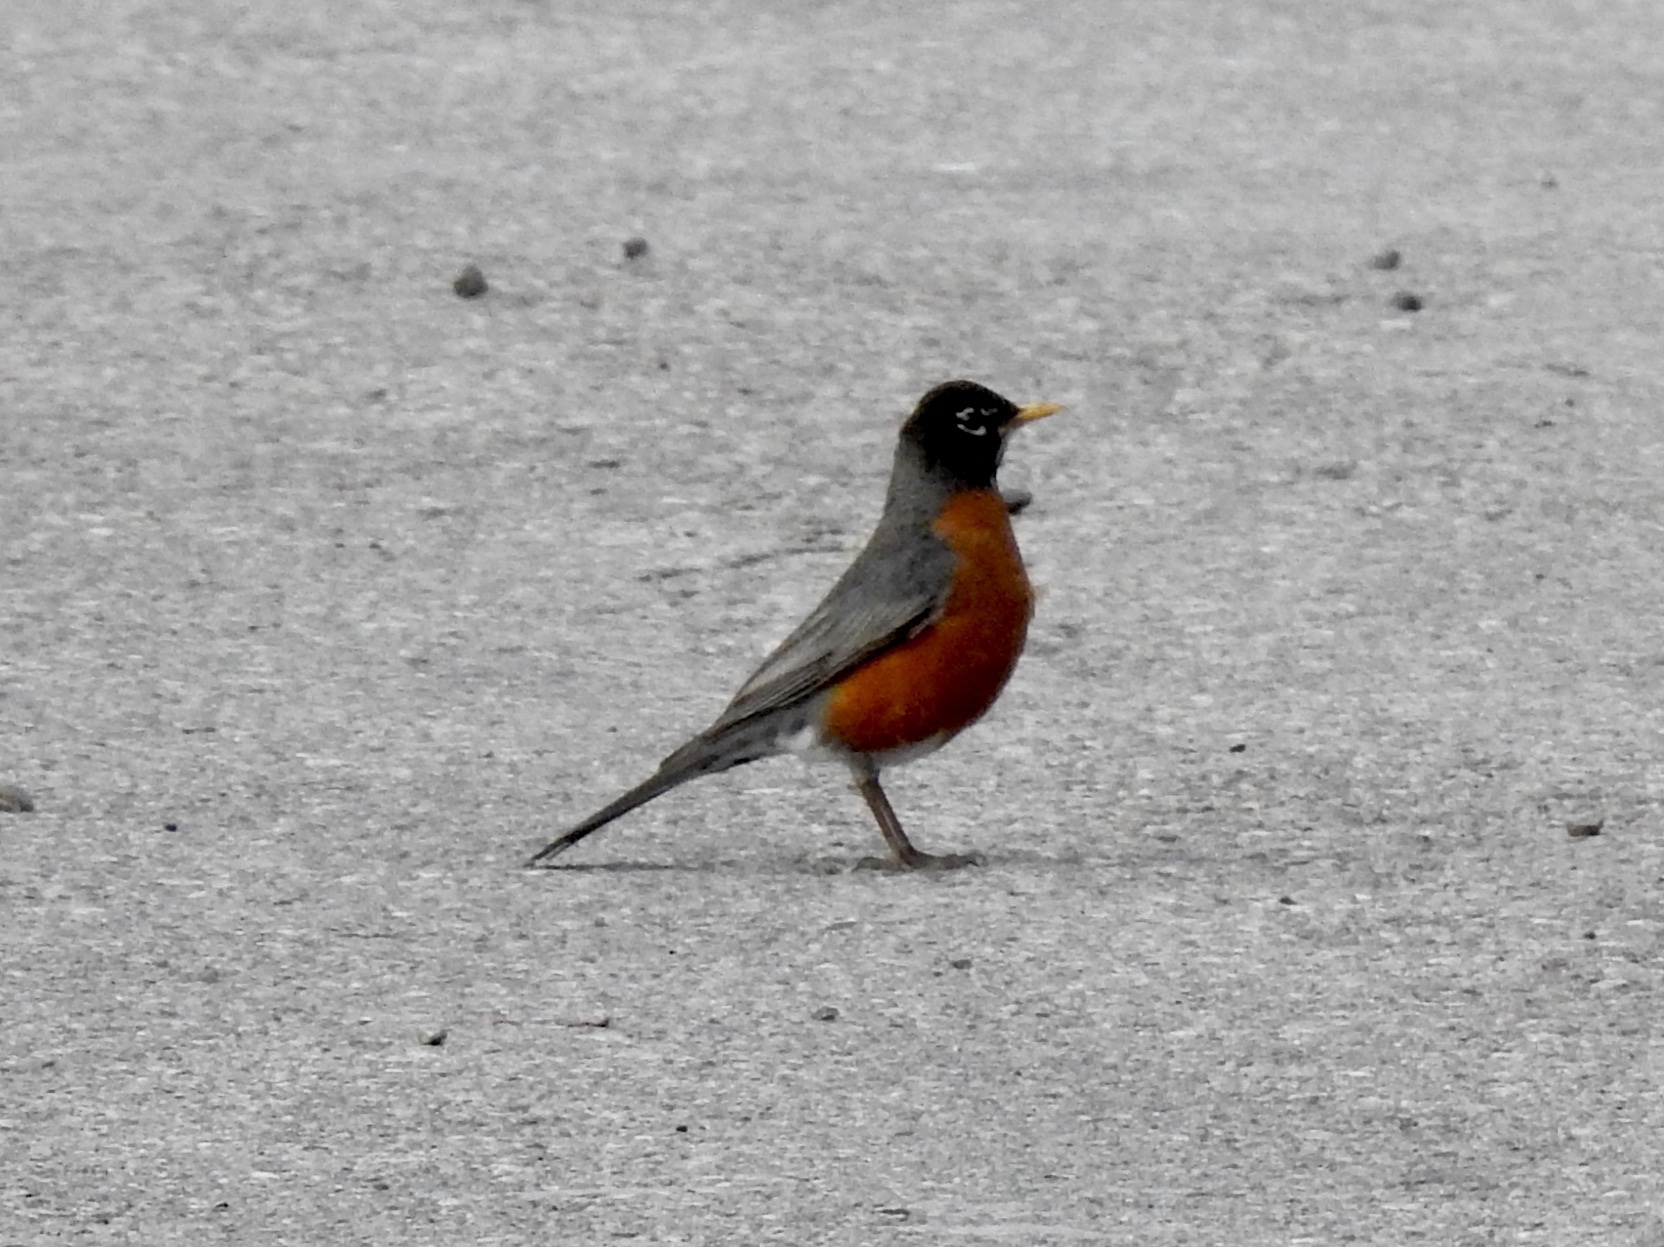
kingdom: Animalia
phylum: Chordata
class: Aves
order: Passeriformes
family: Turdidae
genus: Turdus
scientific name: Turdus migratorius
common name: American robin
